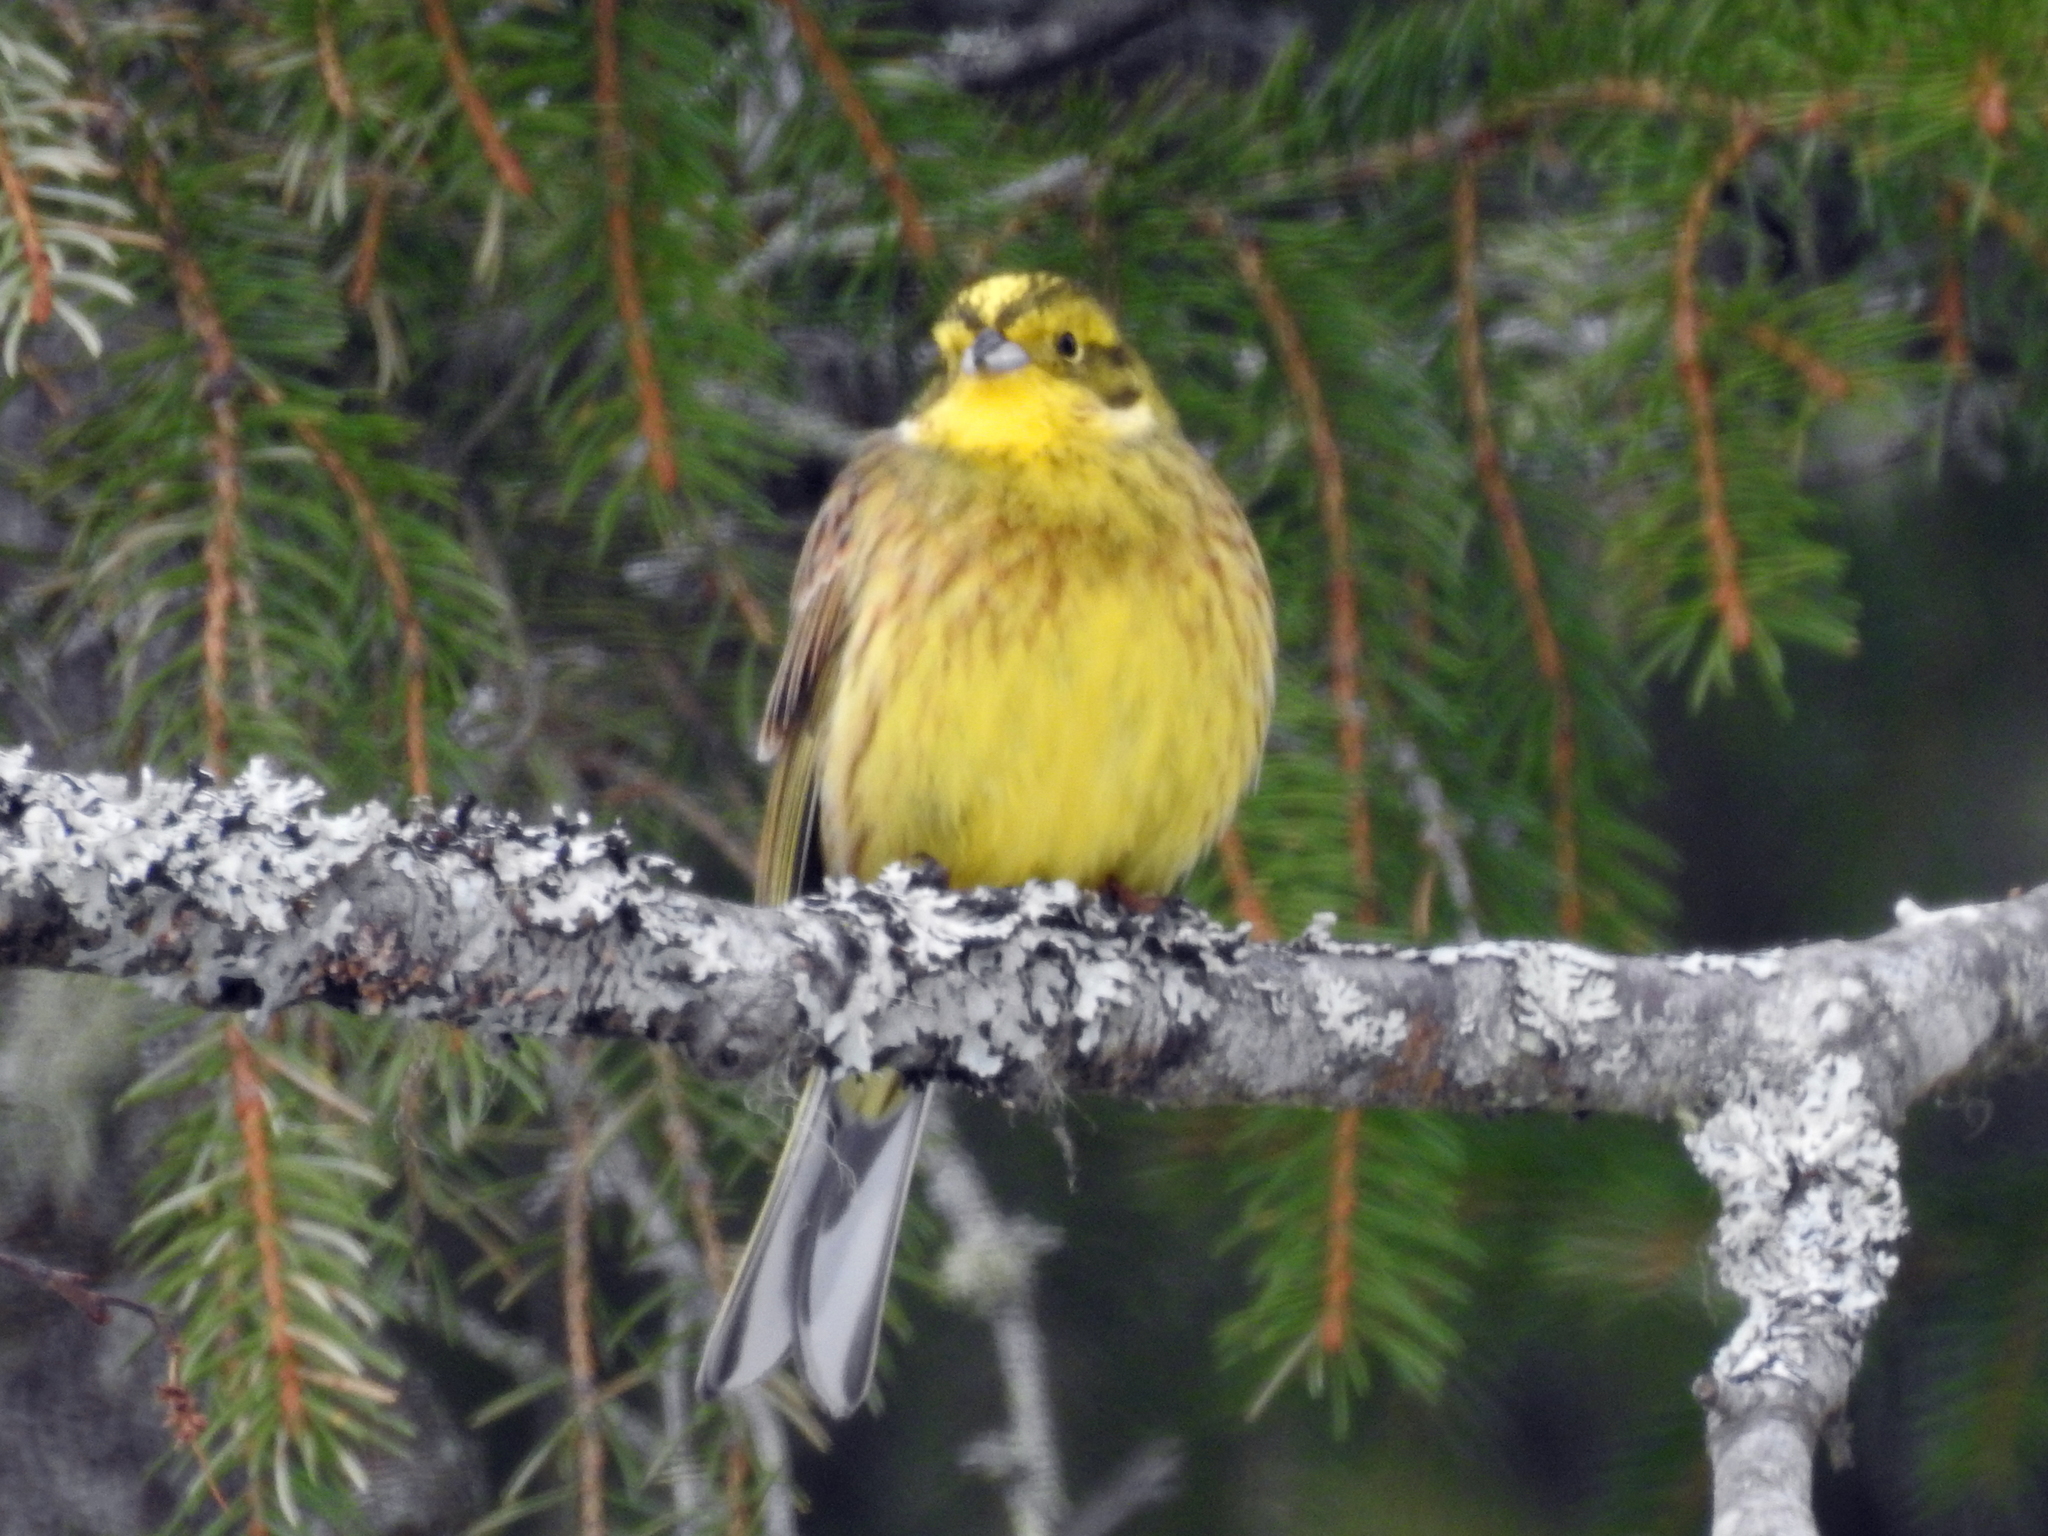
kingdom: Animalia
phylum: Chordata
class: Aves
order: Passeriformes
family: Emberizidae
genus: Emberiza
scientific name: Emberiza citrinella
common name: Yellowhammer
